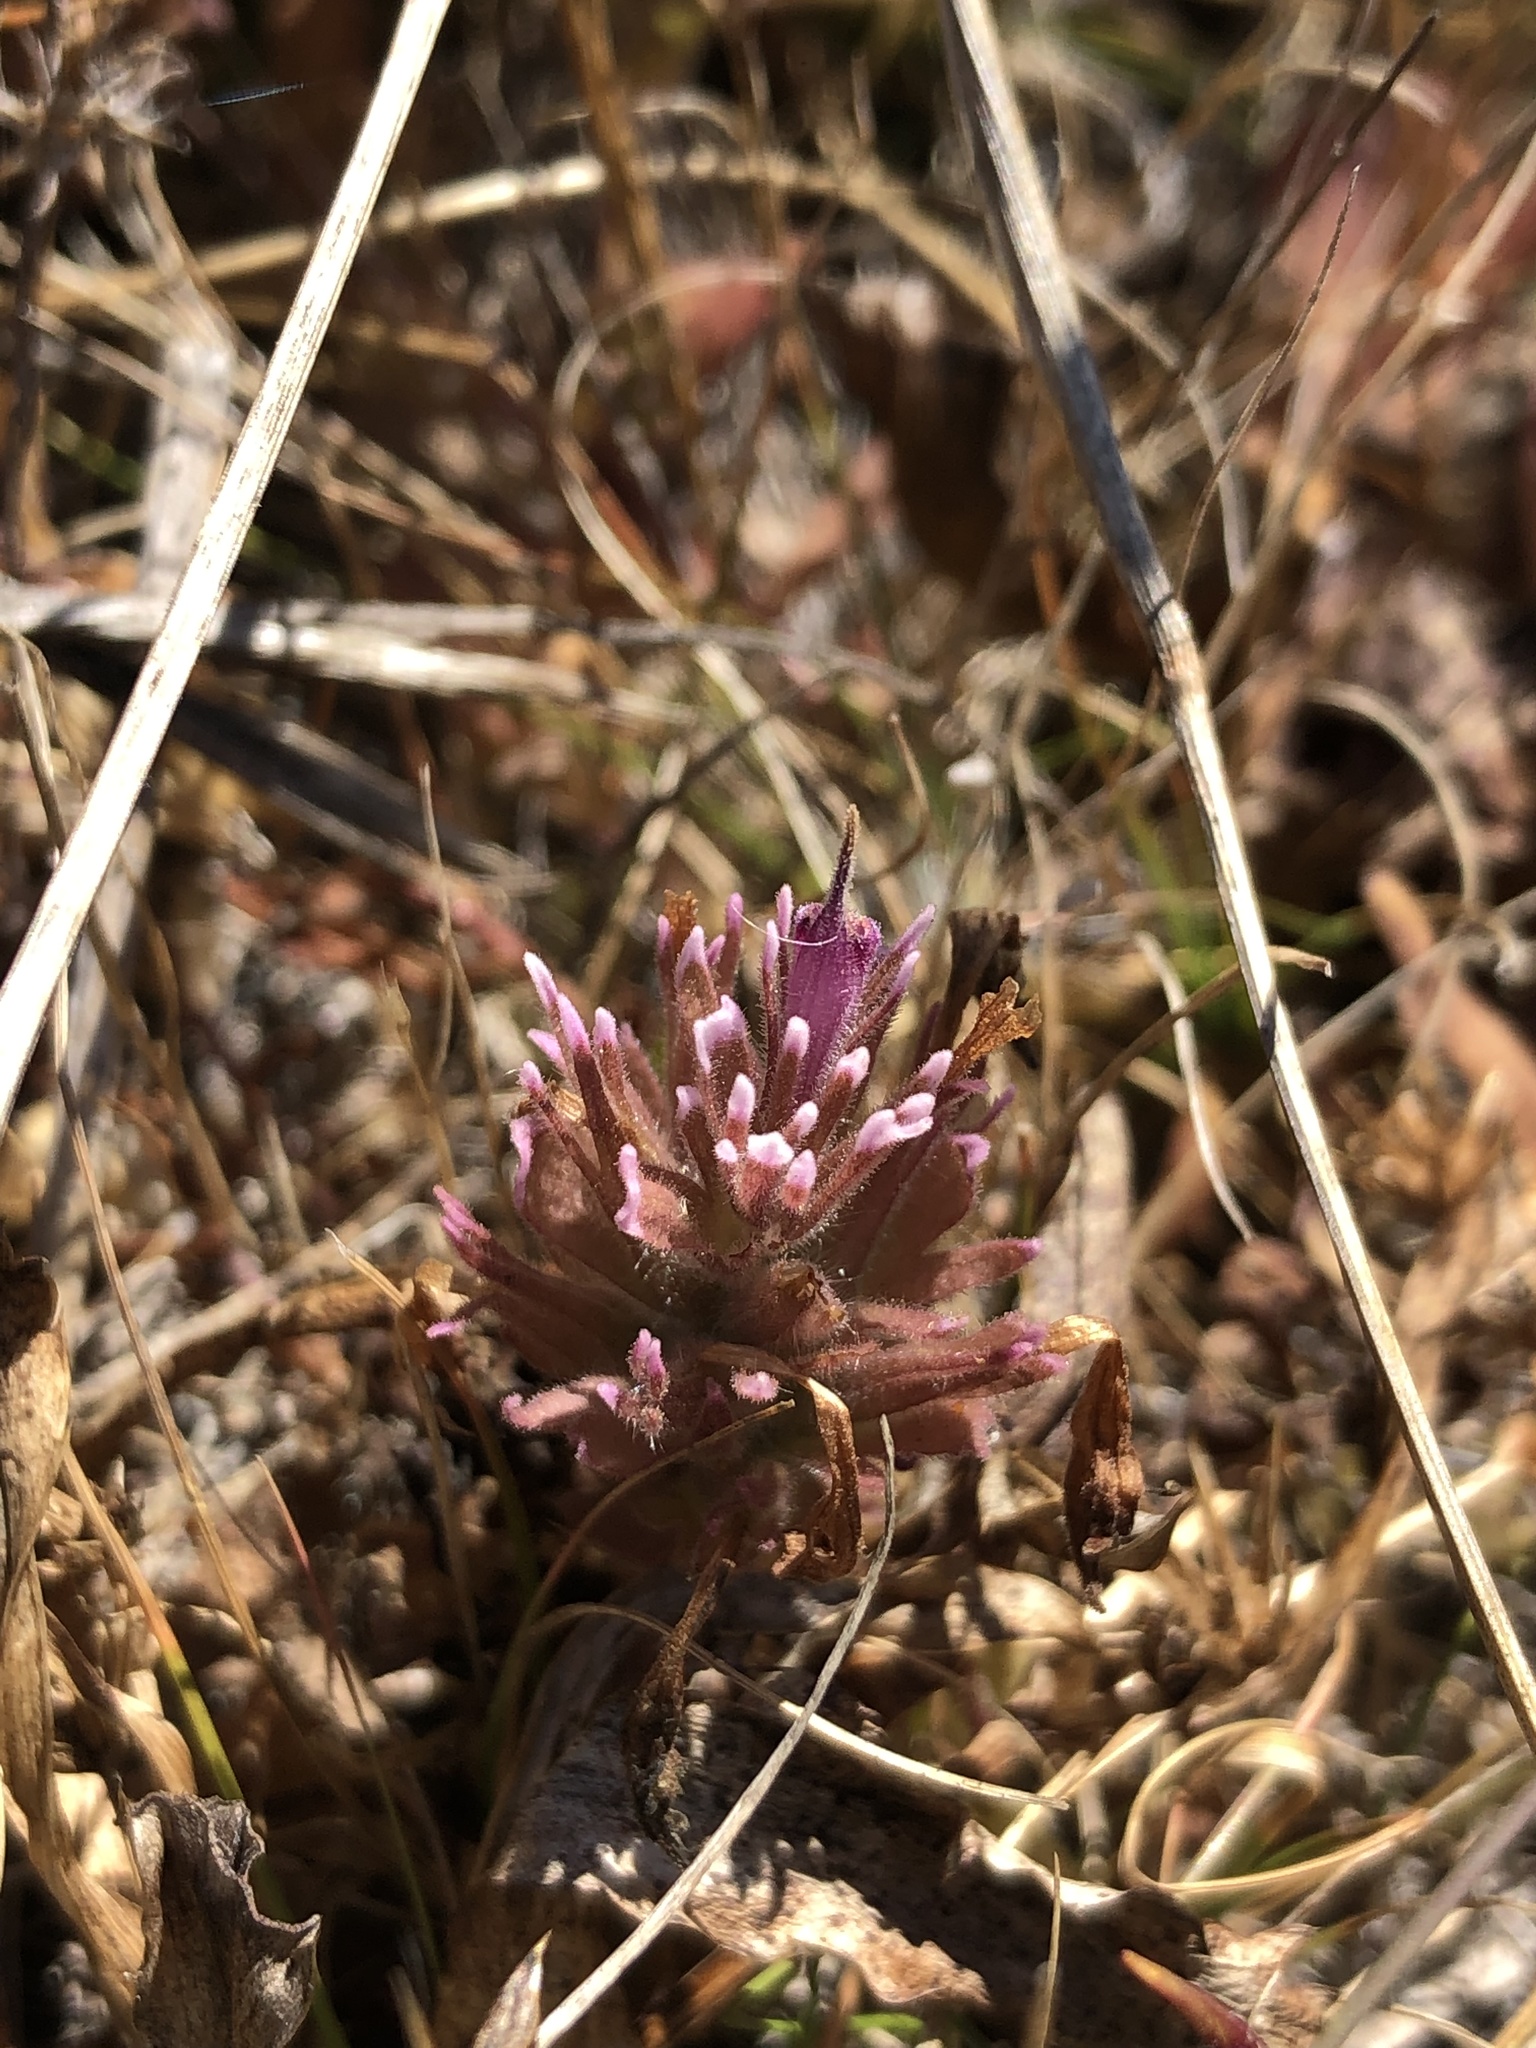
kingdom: Plantae
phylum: Tracheophyta
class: Magnoliopsida
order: Lamiales
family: Orobanchaceae
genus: Castilleja
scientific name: Castilleja ambigua
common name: Johnny-nip
